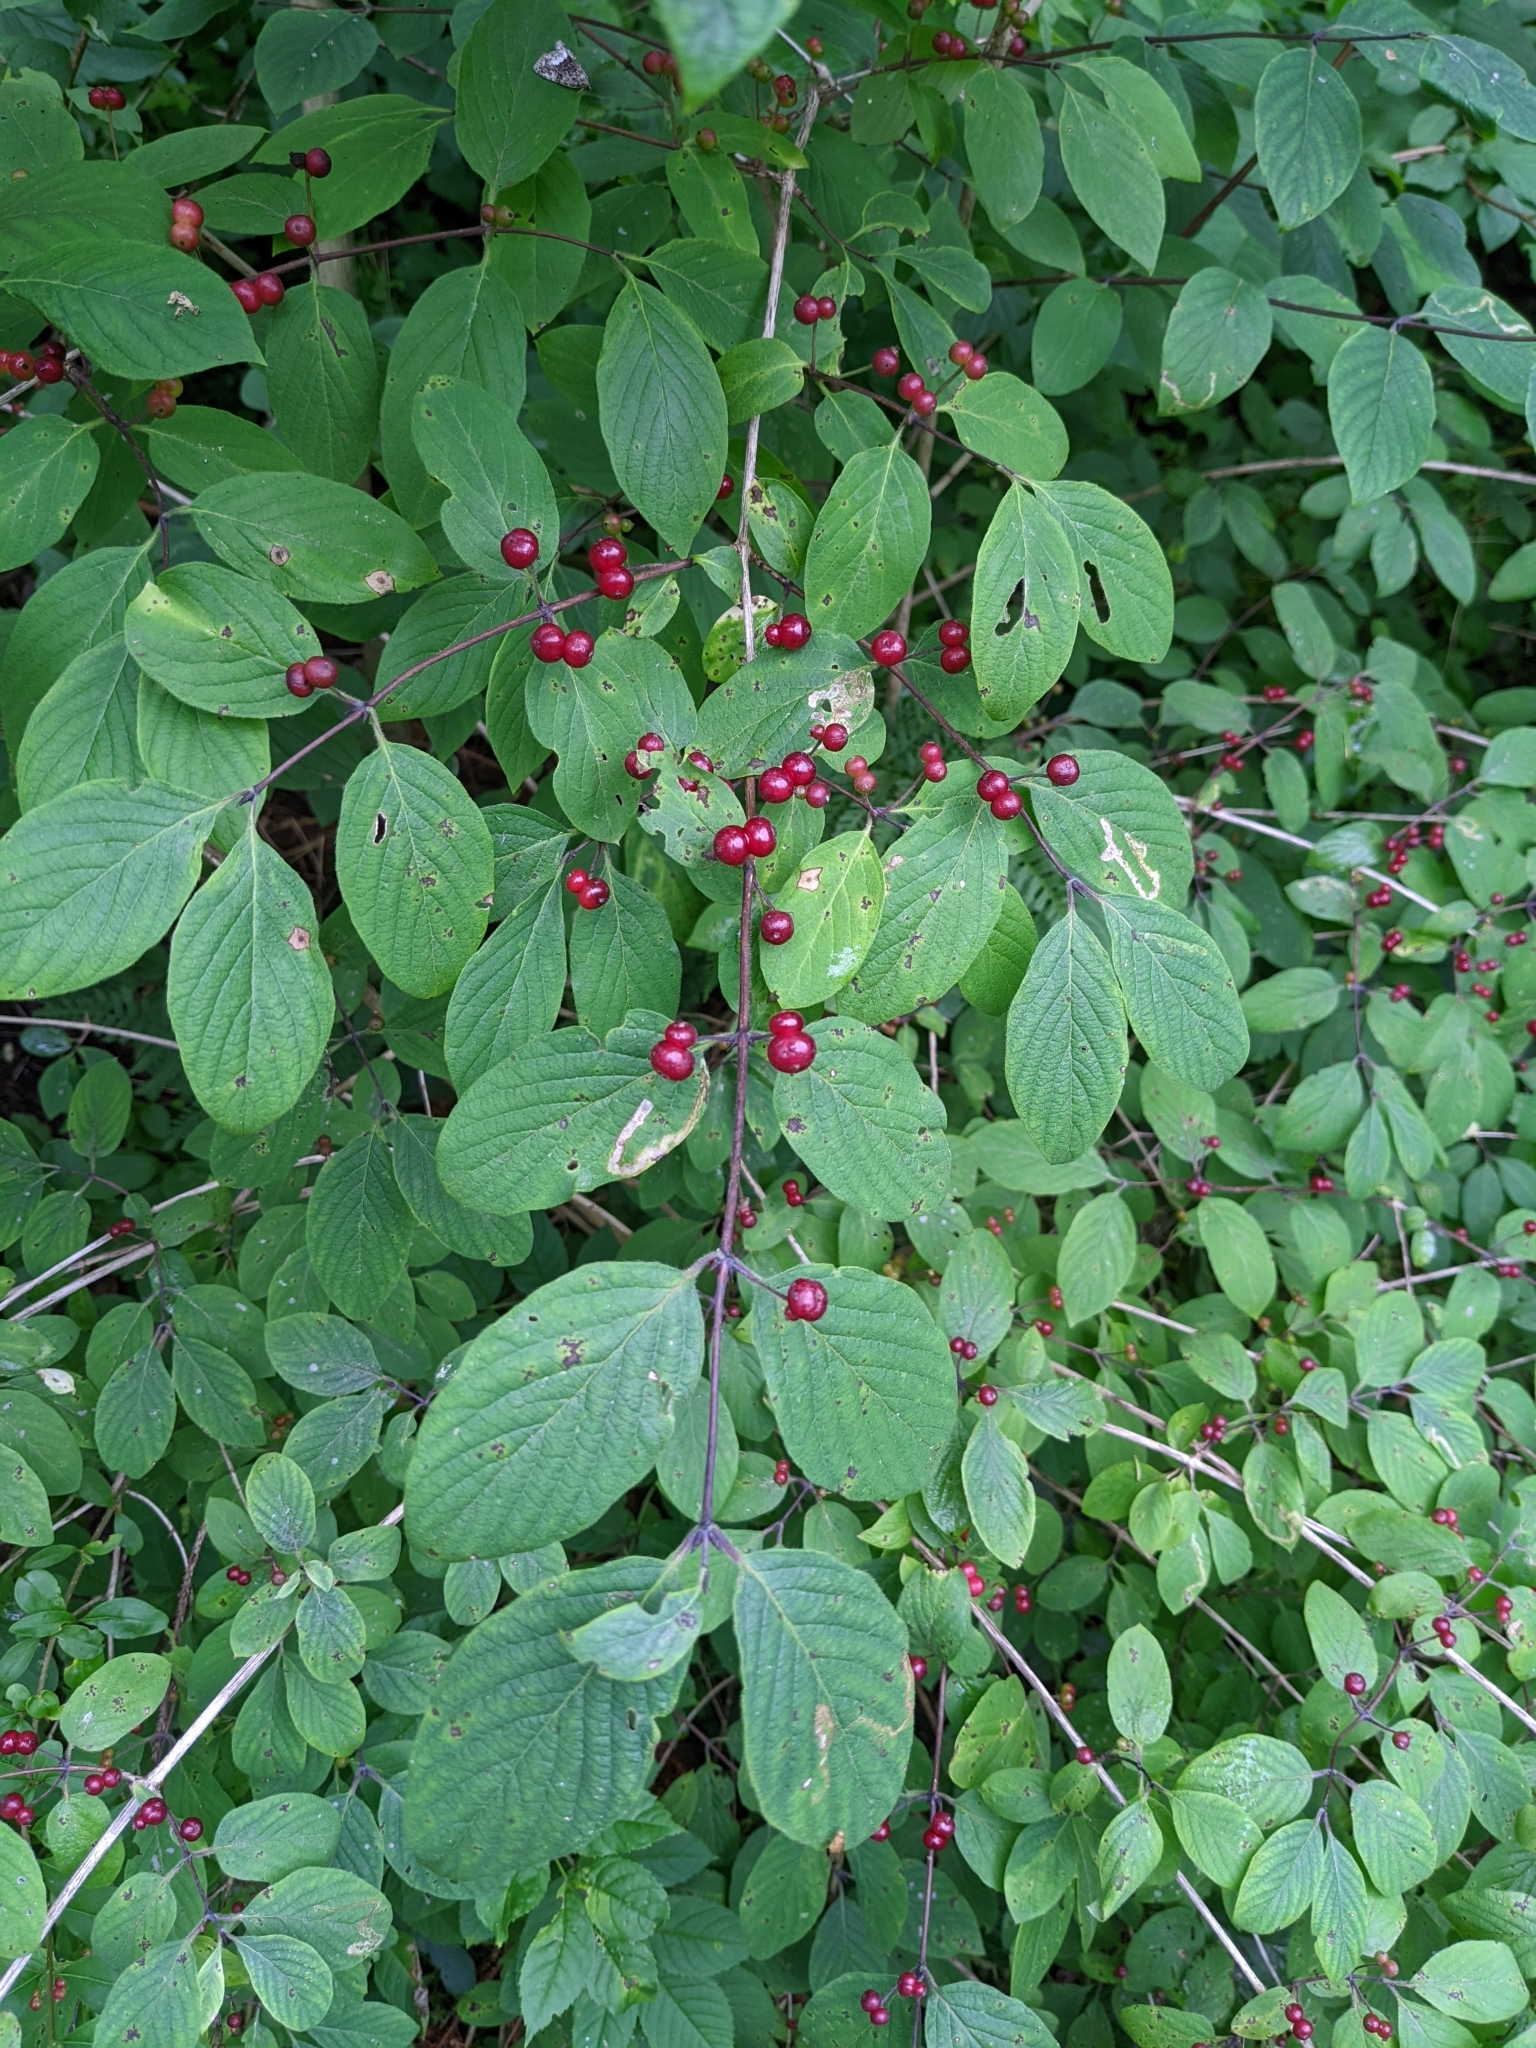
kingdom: Plantae
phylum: Tracheophyta
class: Magnoliopsida
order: Dipsacales
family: Caprifoliaceae
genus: Lonicera
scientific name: Lonicera xylosteum
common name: Fly honeysuckle
